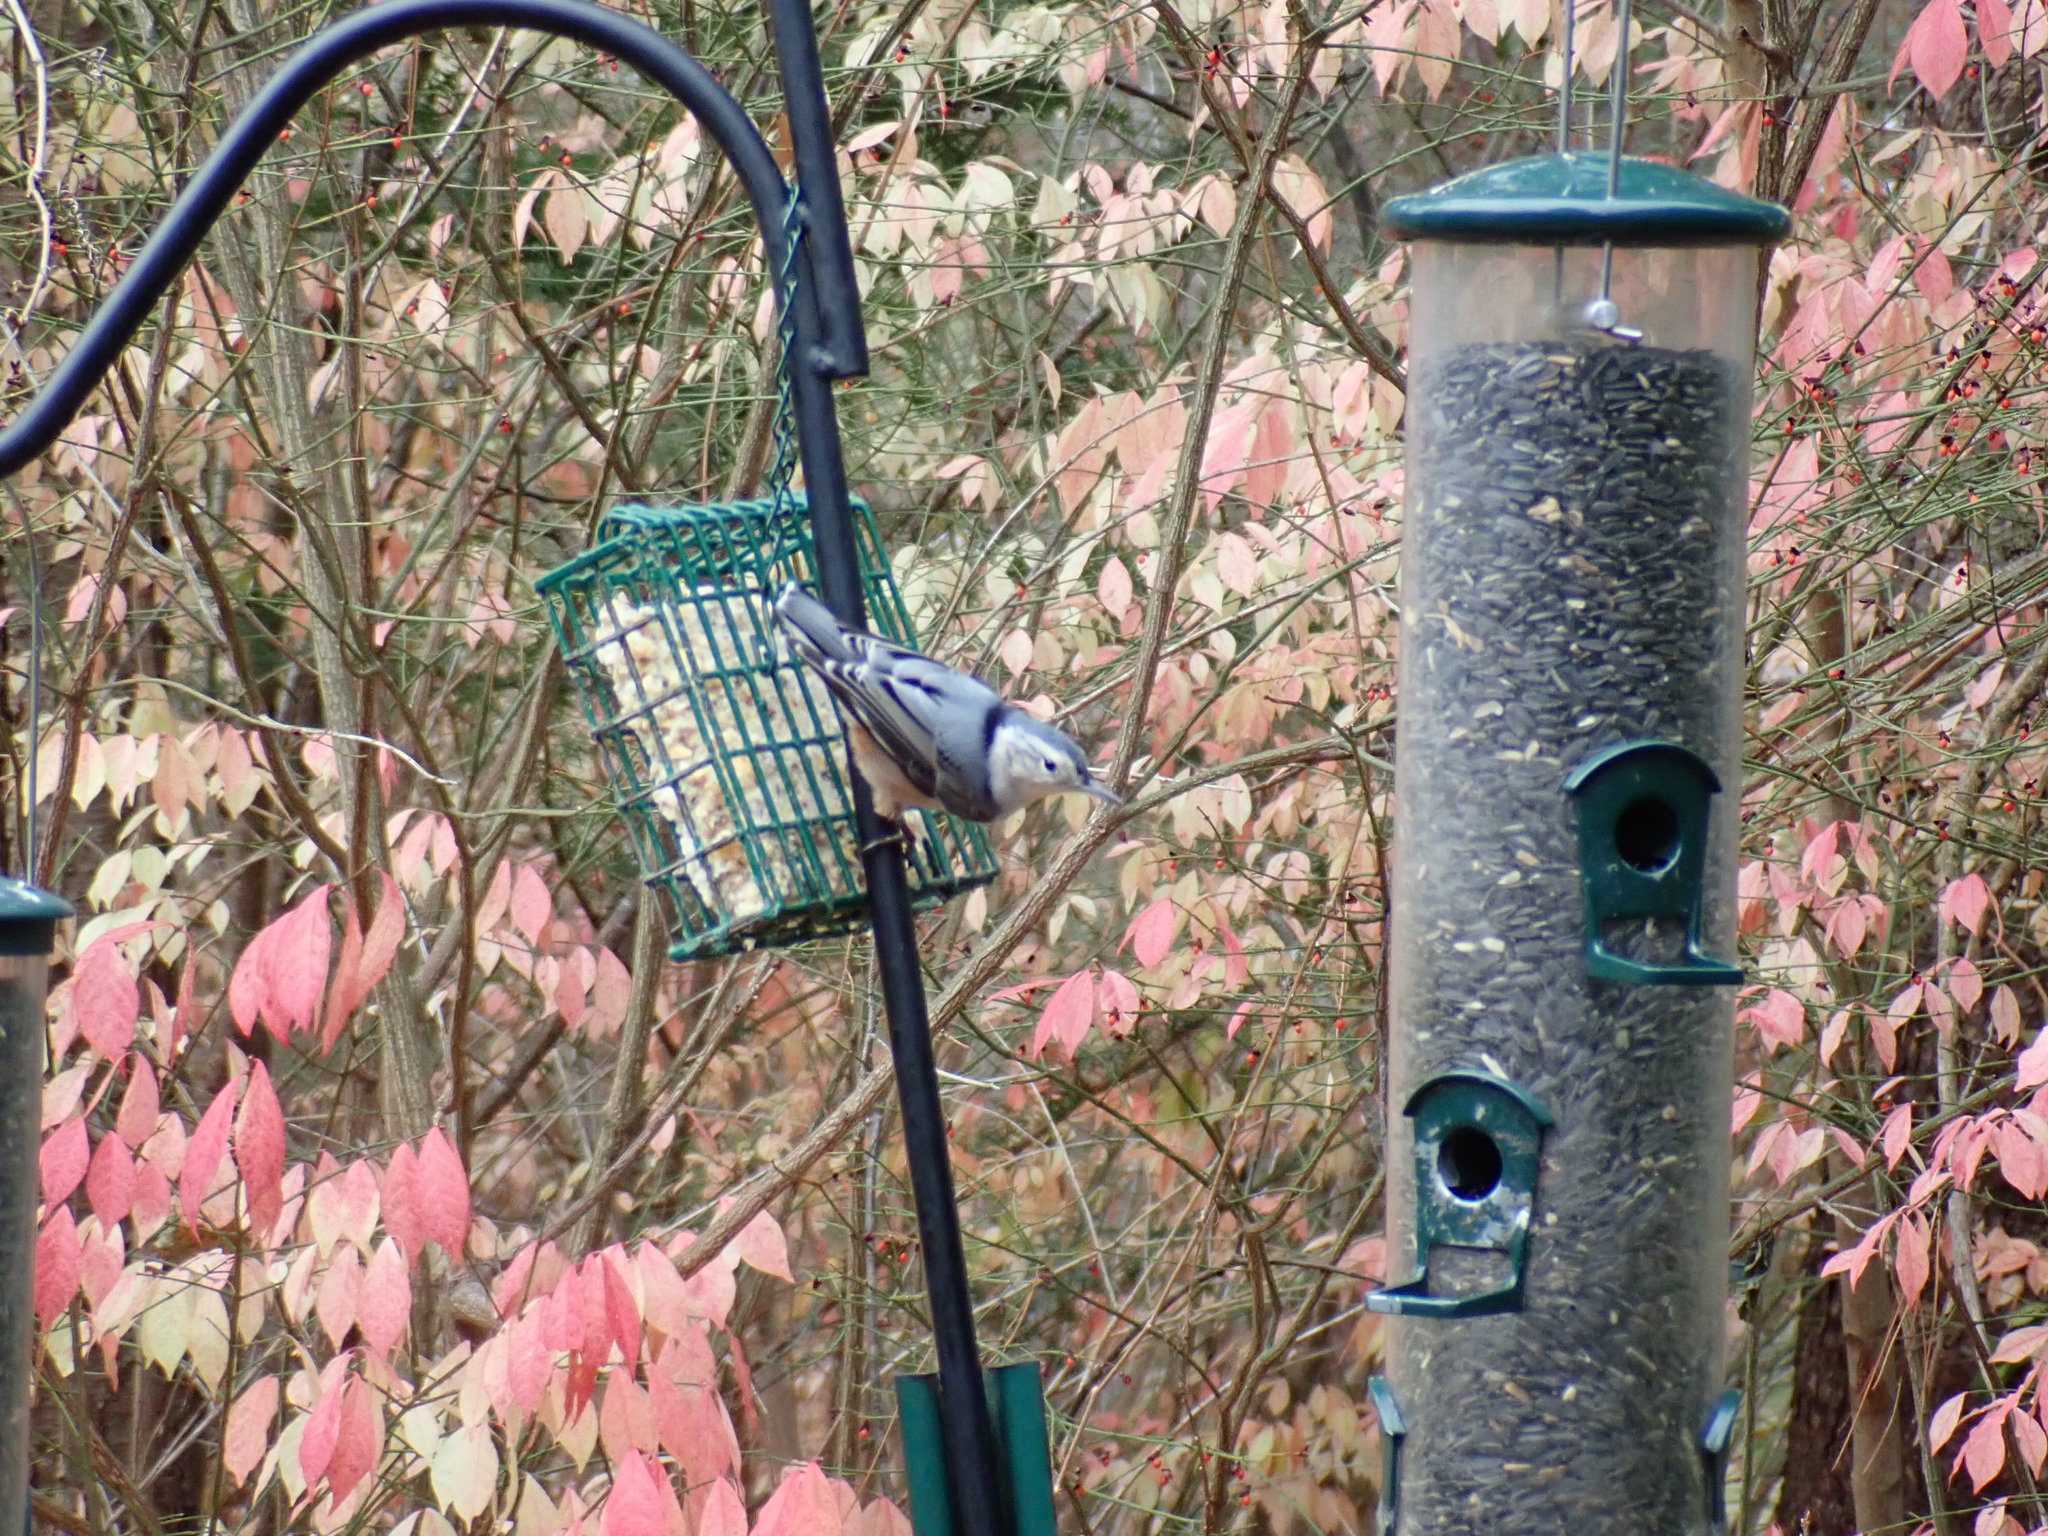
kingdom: Animalia
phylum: Chordata
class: Aves
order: Passeriformes
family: Sittidae
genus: Sitta
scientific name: Sitta carolinensis
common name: White-breasted nuthatch
